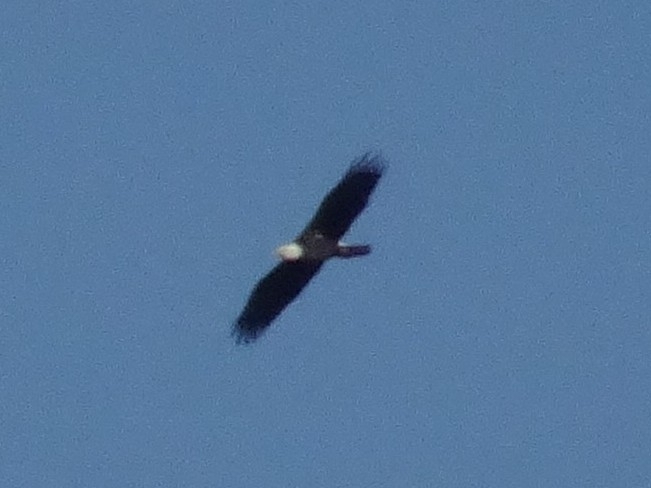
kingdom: Animalia
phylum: Chordata
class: Aves
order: Accipitriformes
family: Accipitridae
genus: Haliaeetus
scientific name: Haliaeetus leucocephalus
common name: Bald eagle
